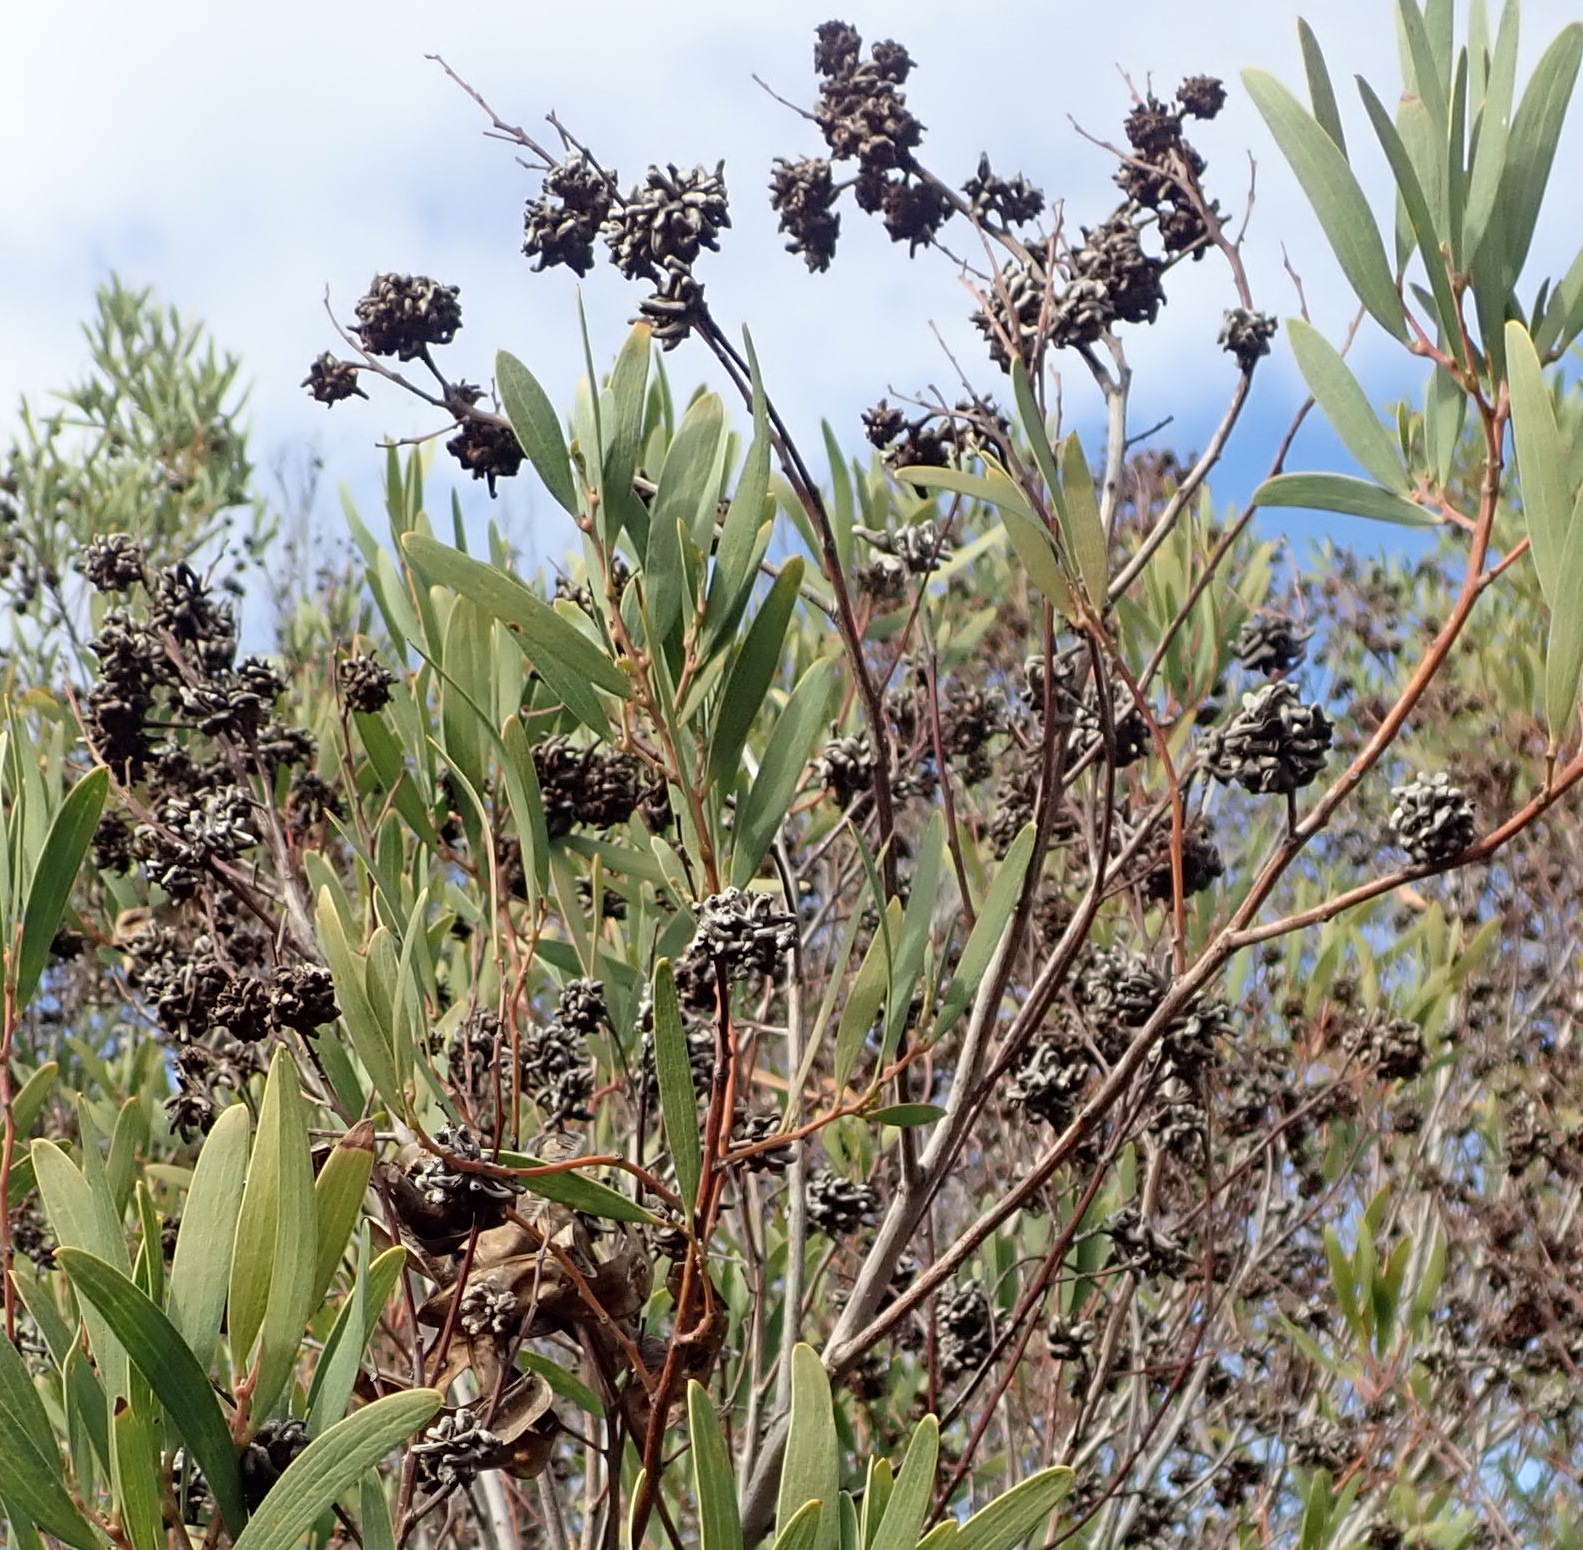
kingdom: Animalia
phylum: Arthropoda
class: Insecta
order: Diptera
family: Cecidomyiidae
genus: Dasineura
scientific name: Dasineura dielsi
